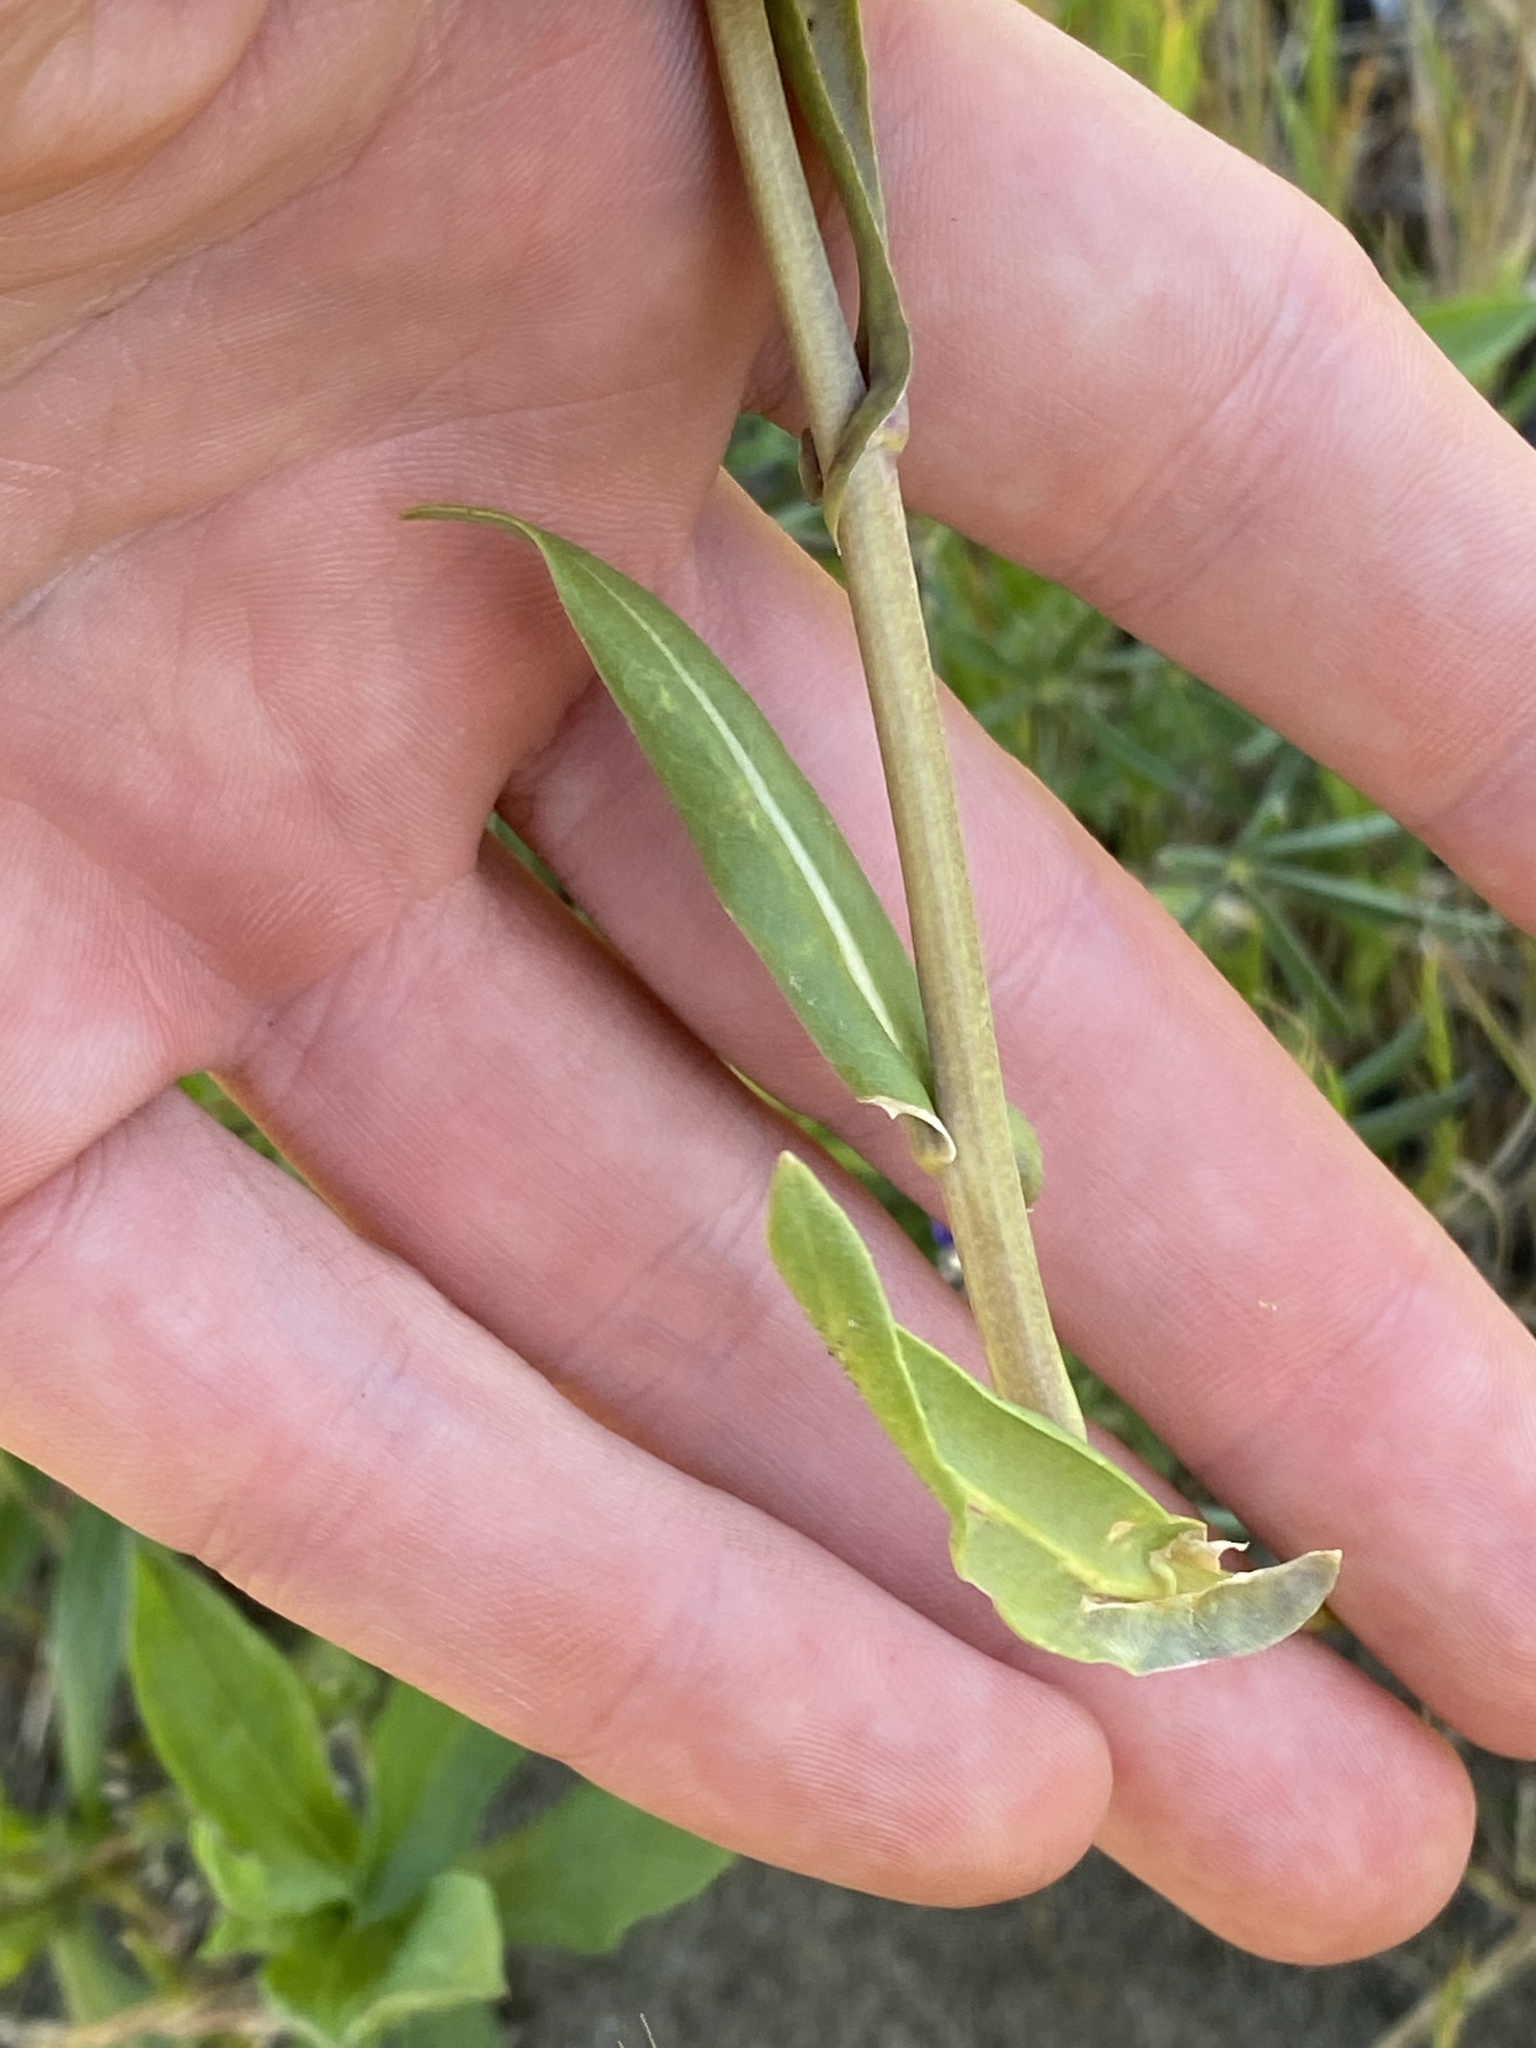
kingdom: Plantae
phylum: Tracheophyta
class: Magnoliopsida
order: Brassicales
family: Brassicaceae
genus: Isatis
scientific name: Isatis tinctoria
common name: Woad
